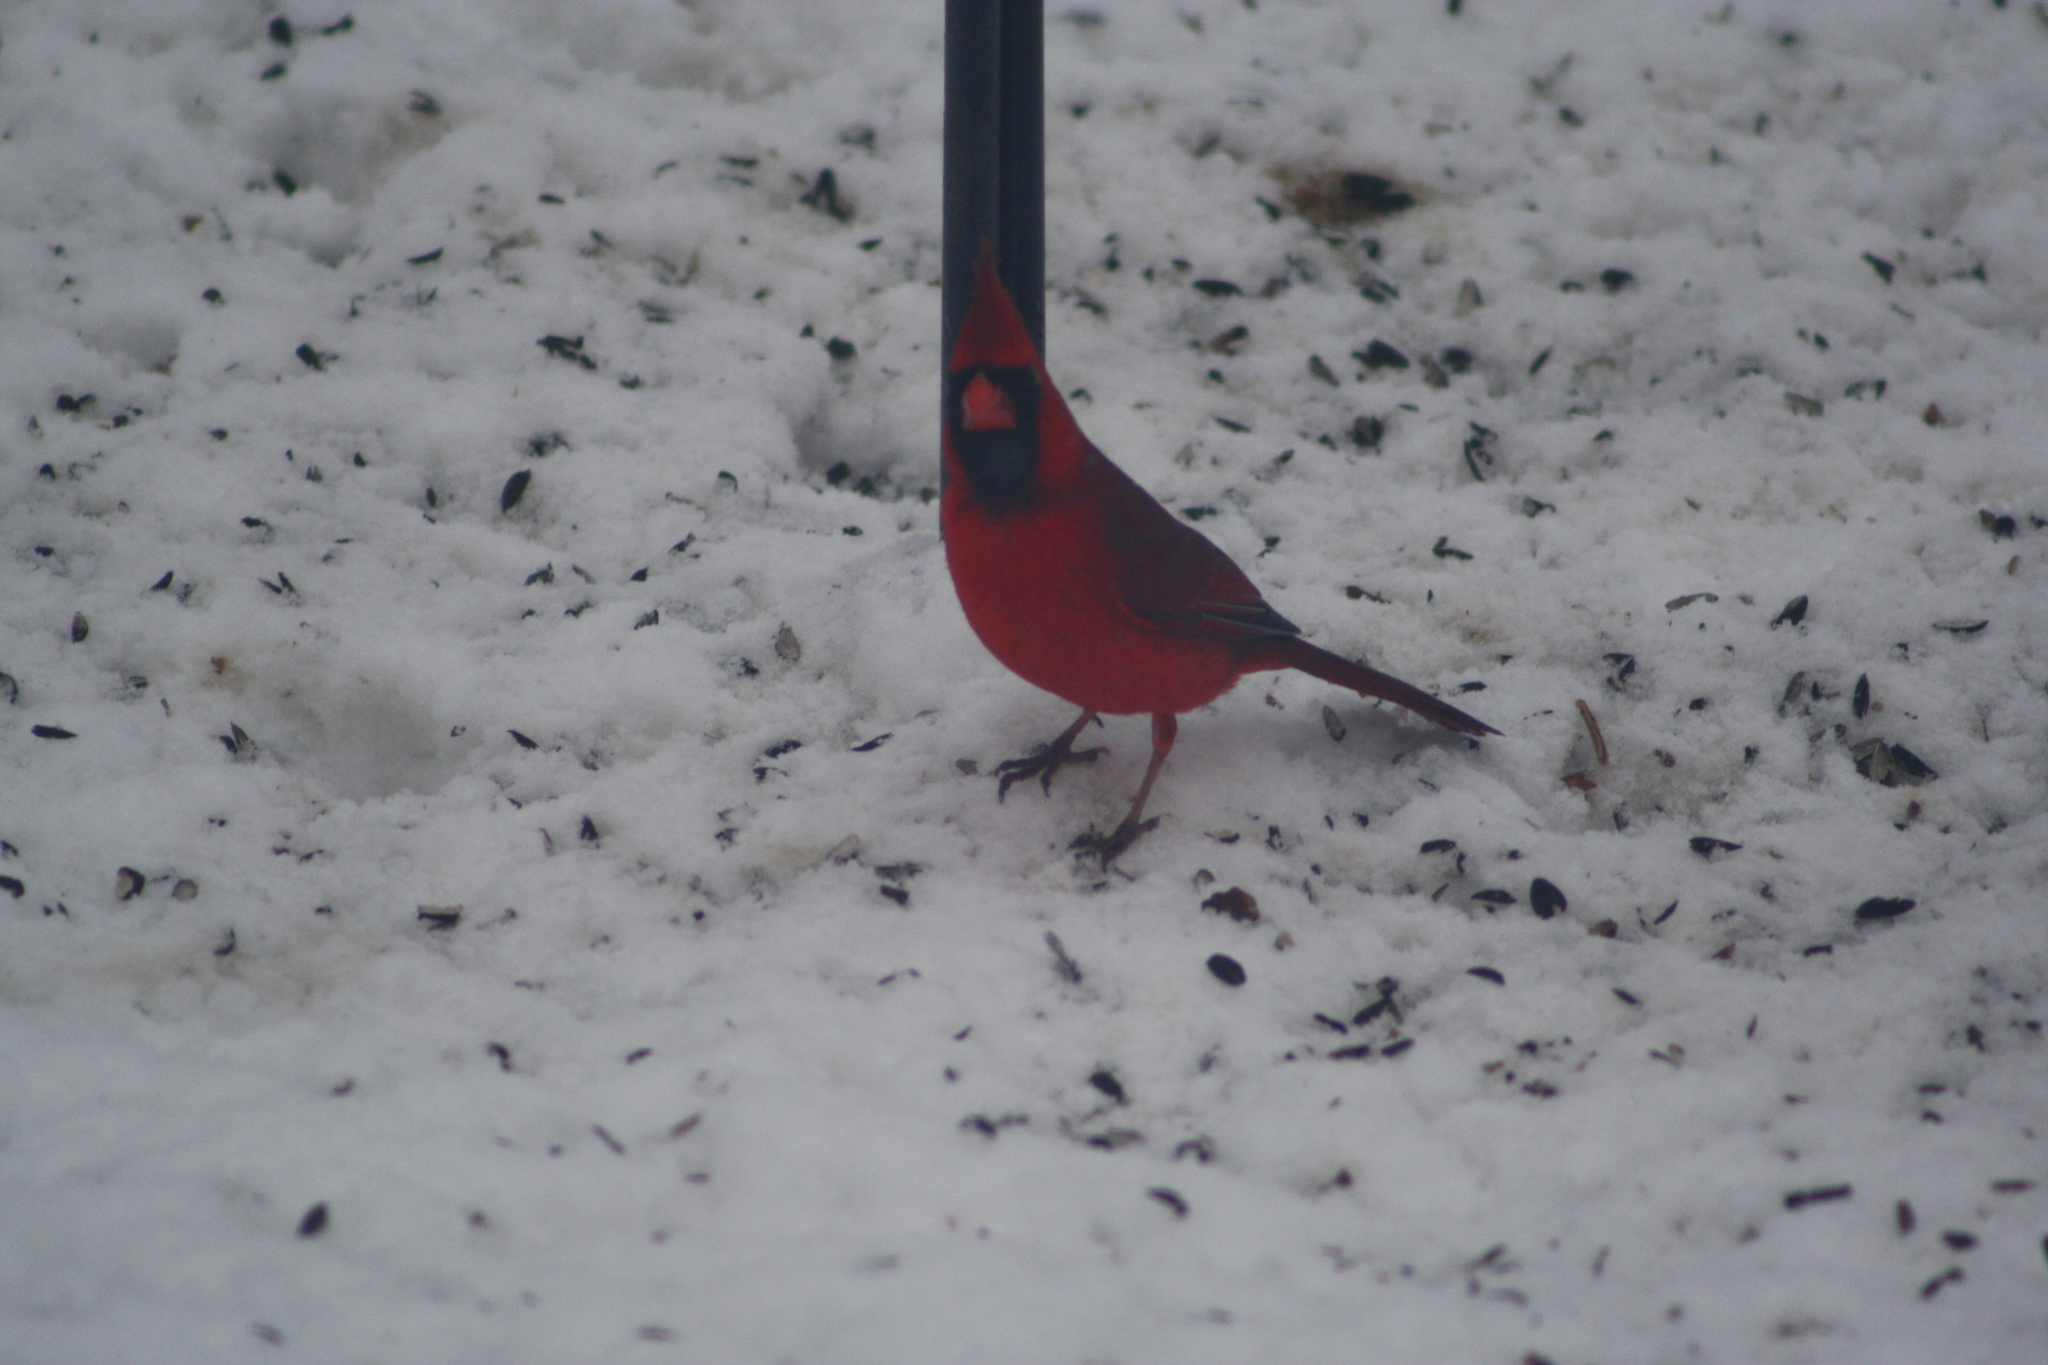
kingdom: Animalia
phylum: Chordata
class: Aves
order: Passeriformes
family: Cardinalidae
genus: Cardinalis
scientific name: Cardinalis cardinalis
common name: Northern cardinal
